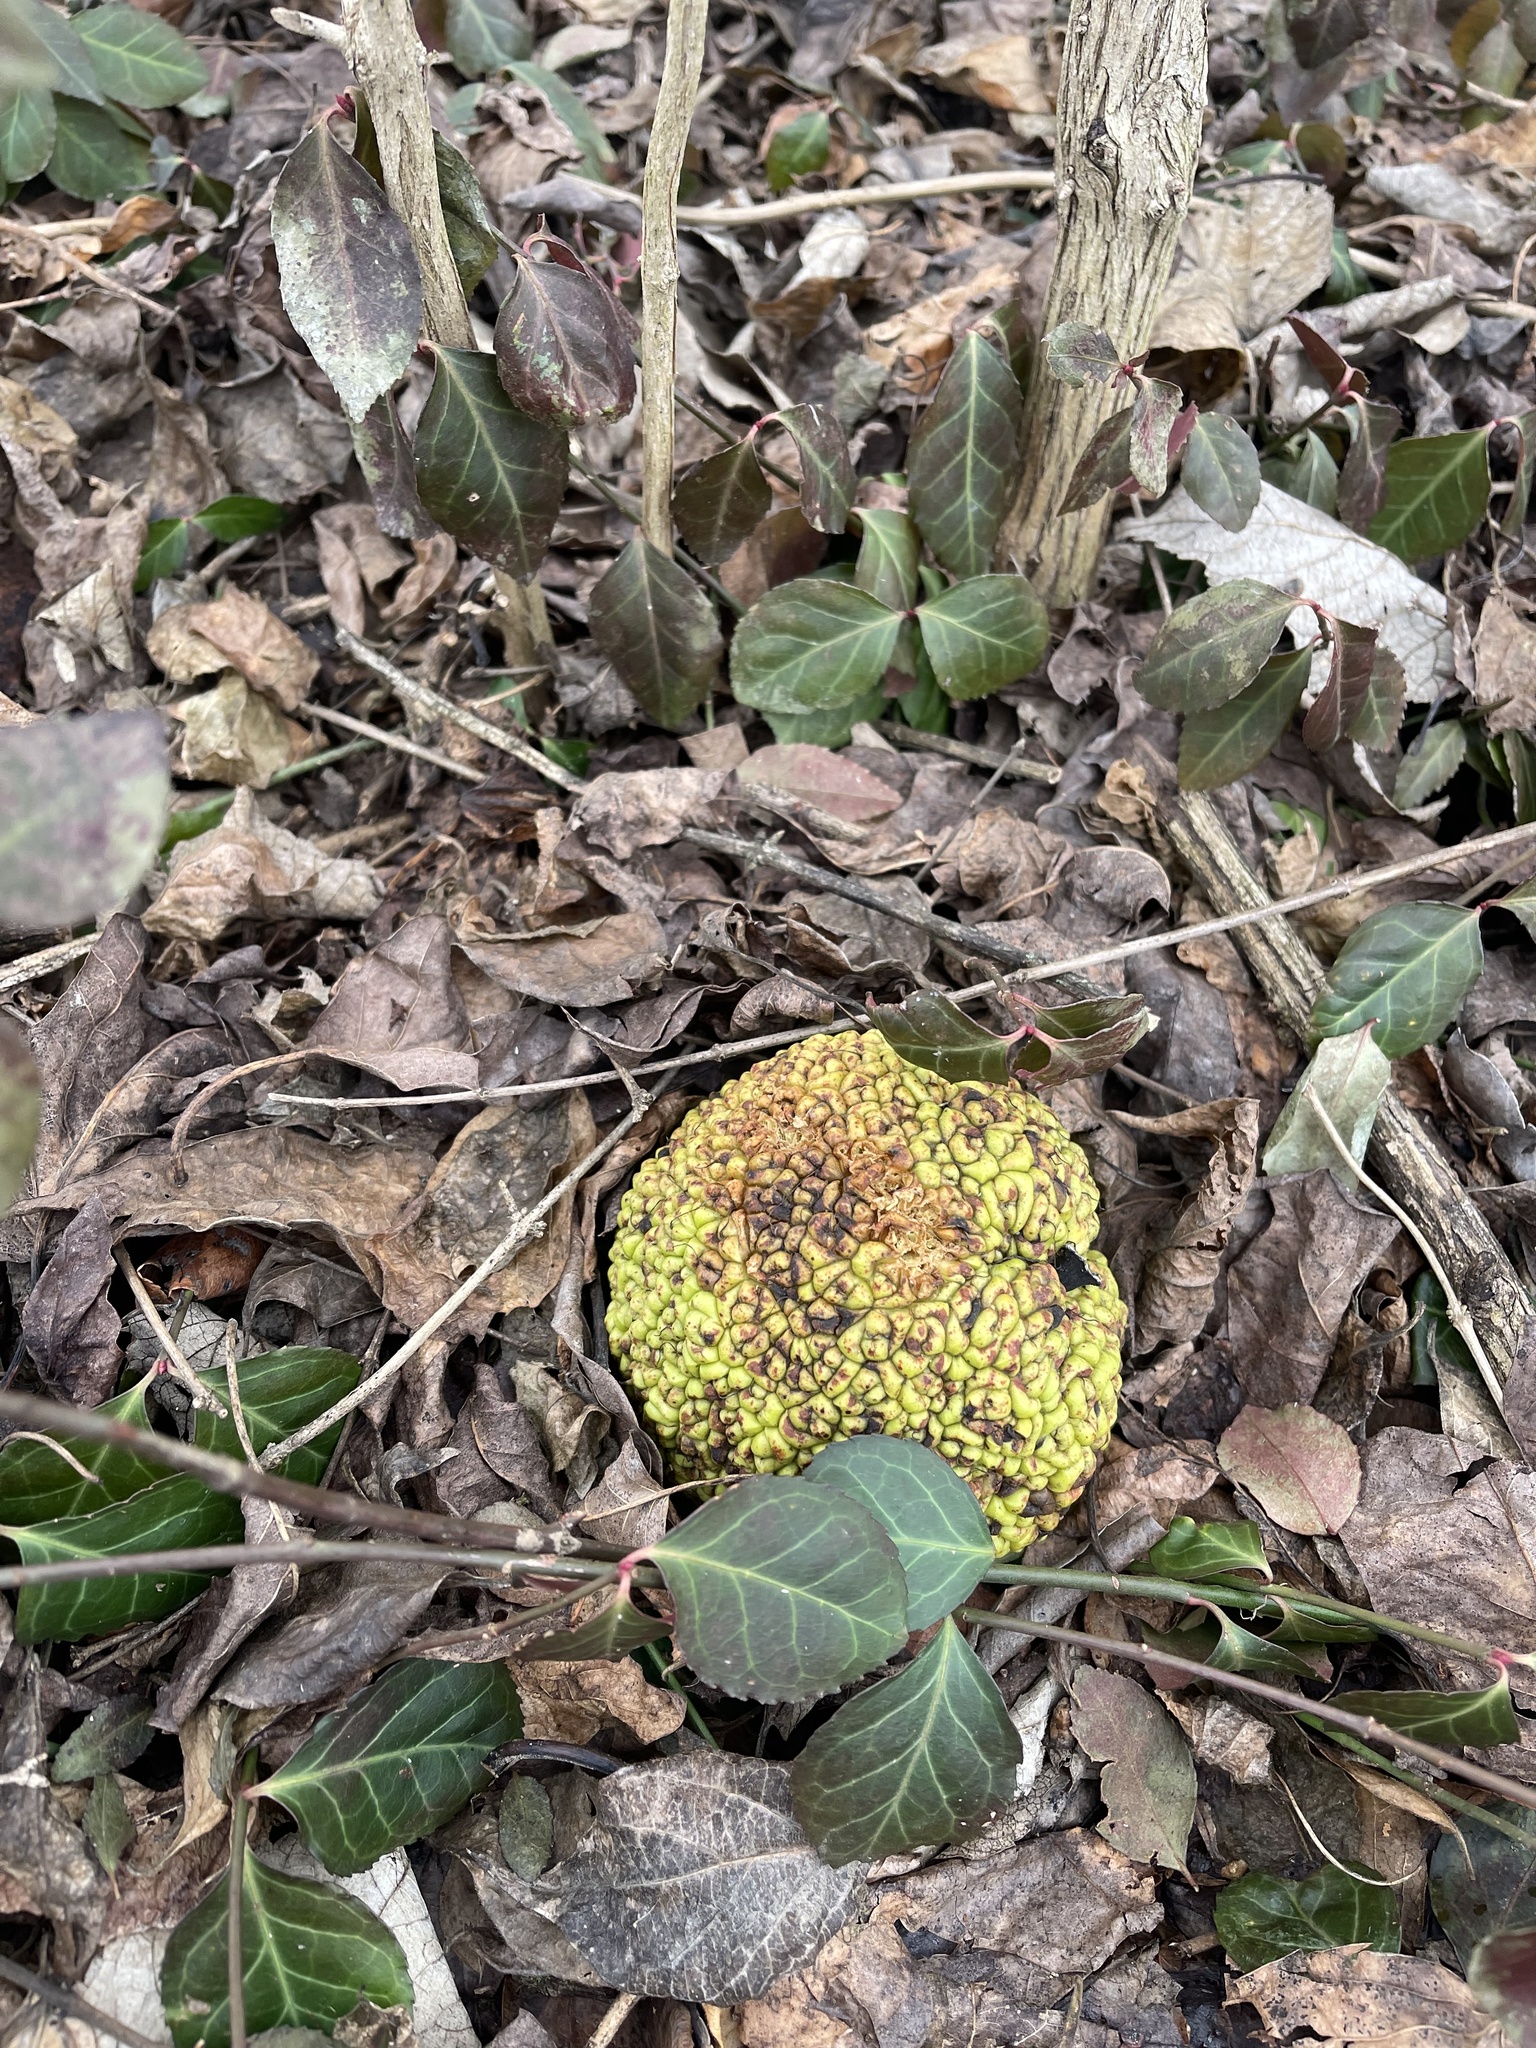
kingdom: Plantae
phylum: Tracheophyta
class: Magnoliopsida
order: Rosales
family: Moraceae
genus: Maclura
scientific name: Maclura pomifera
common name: Osage-orange
